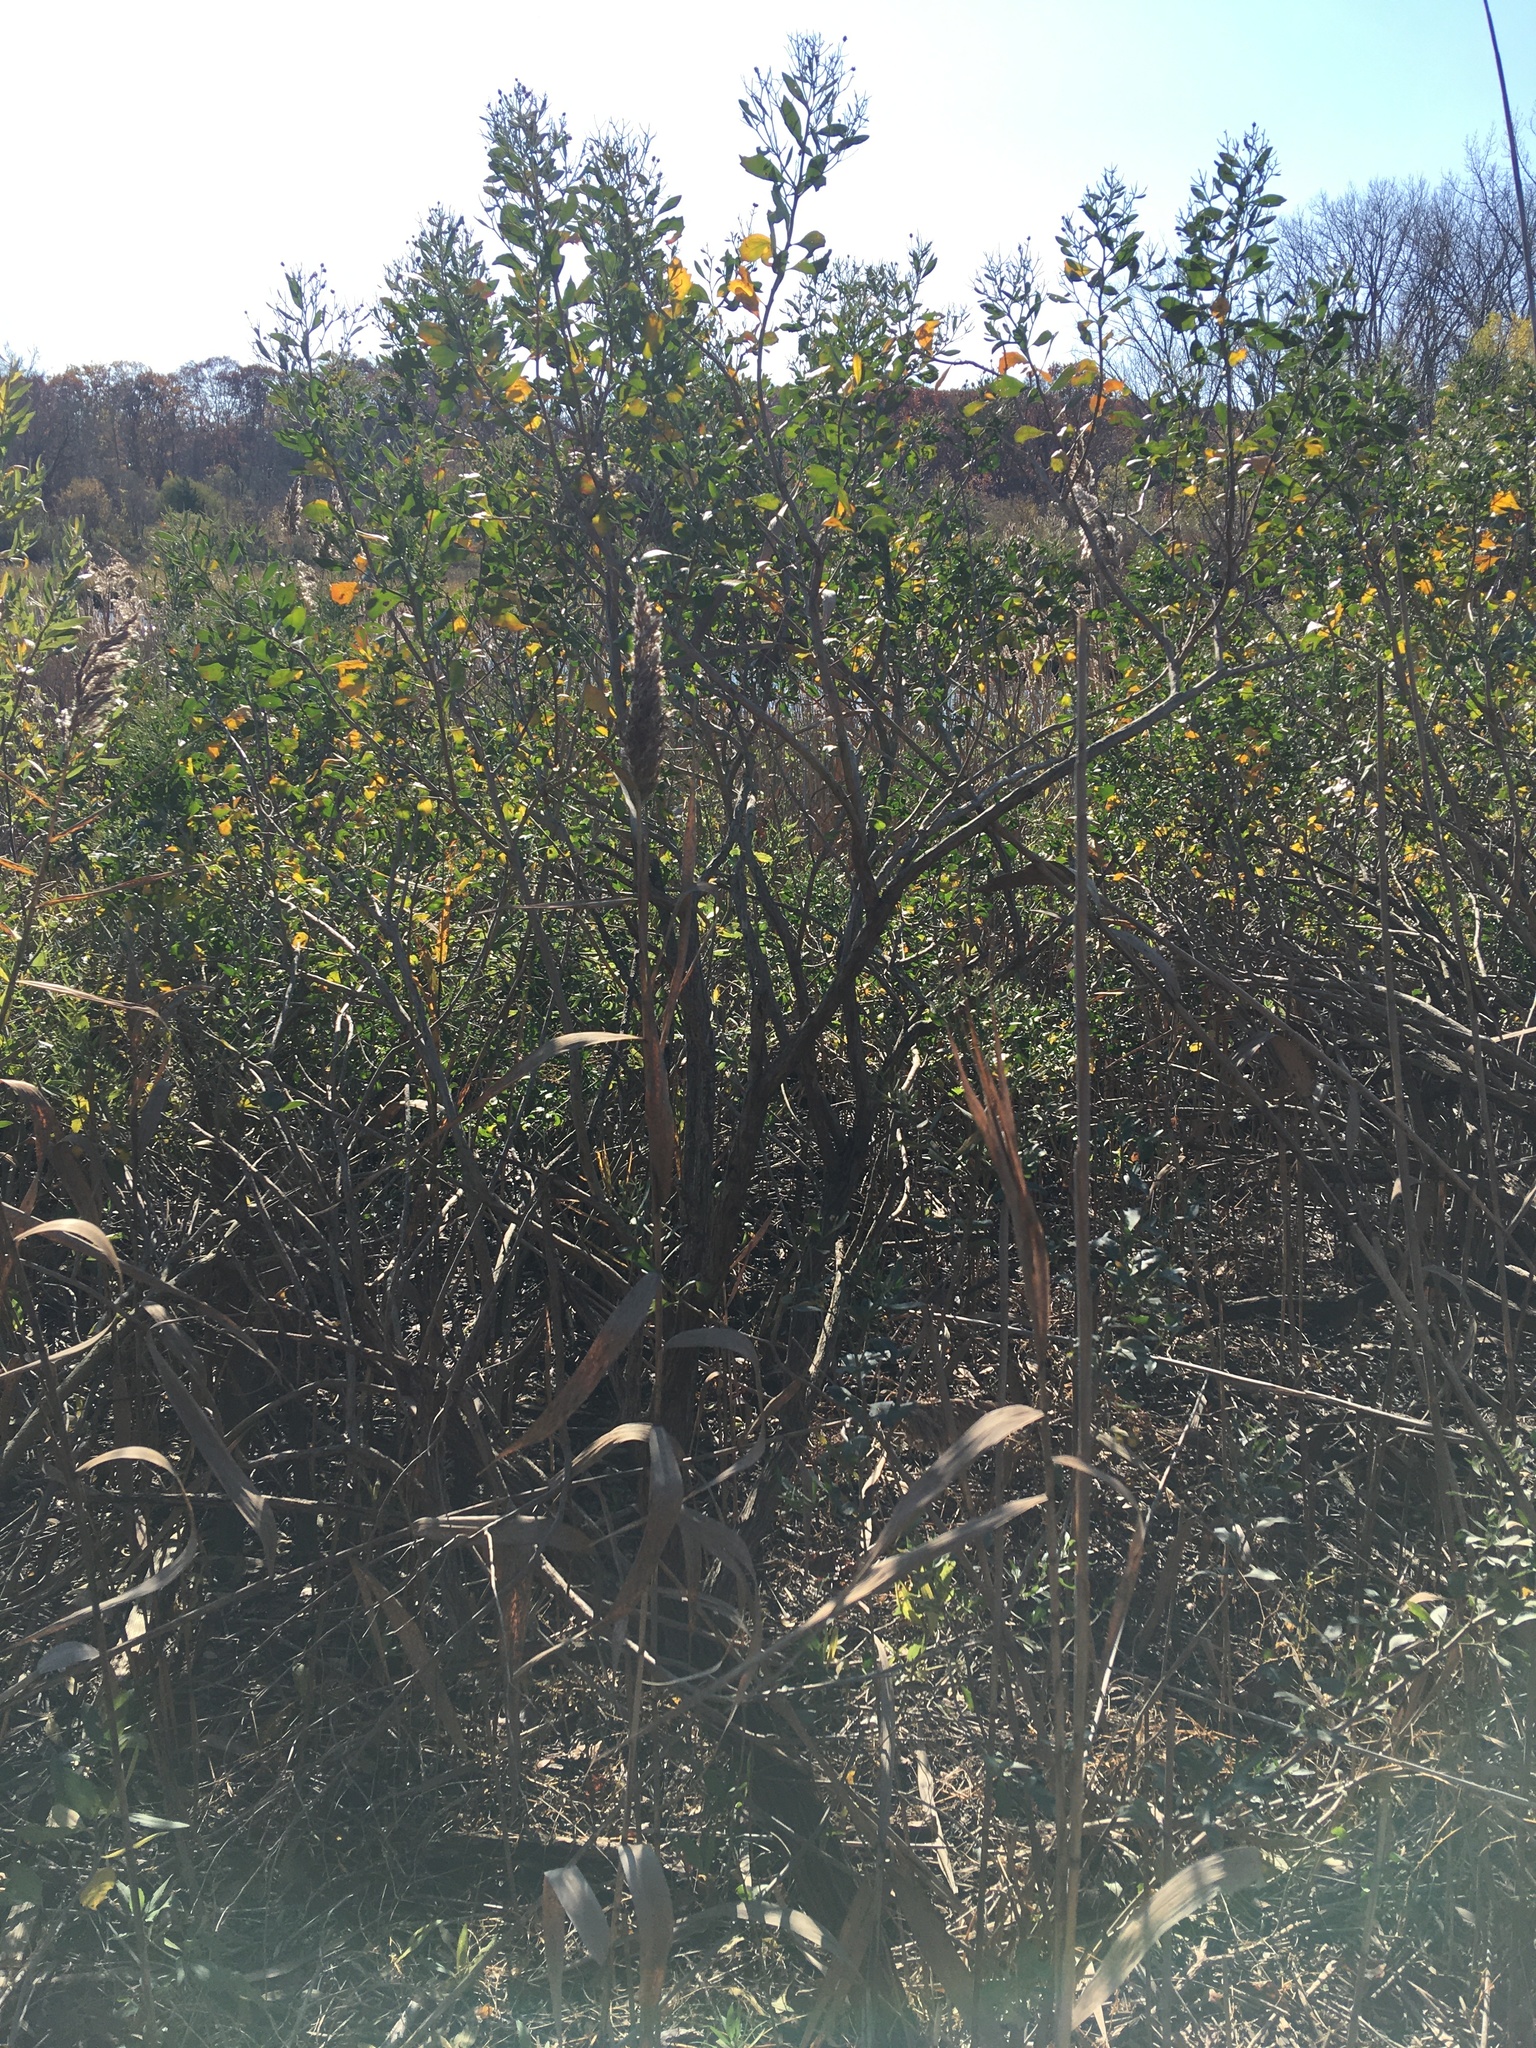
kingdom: Plantae
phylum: Tracheophyta
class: Magnoliopsida
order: Asterales
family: Asteraceae
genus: Baccharis
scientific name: Baccharis halimifolia
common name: Eastern baccharis
